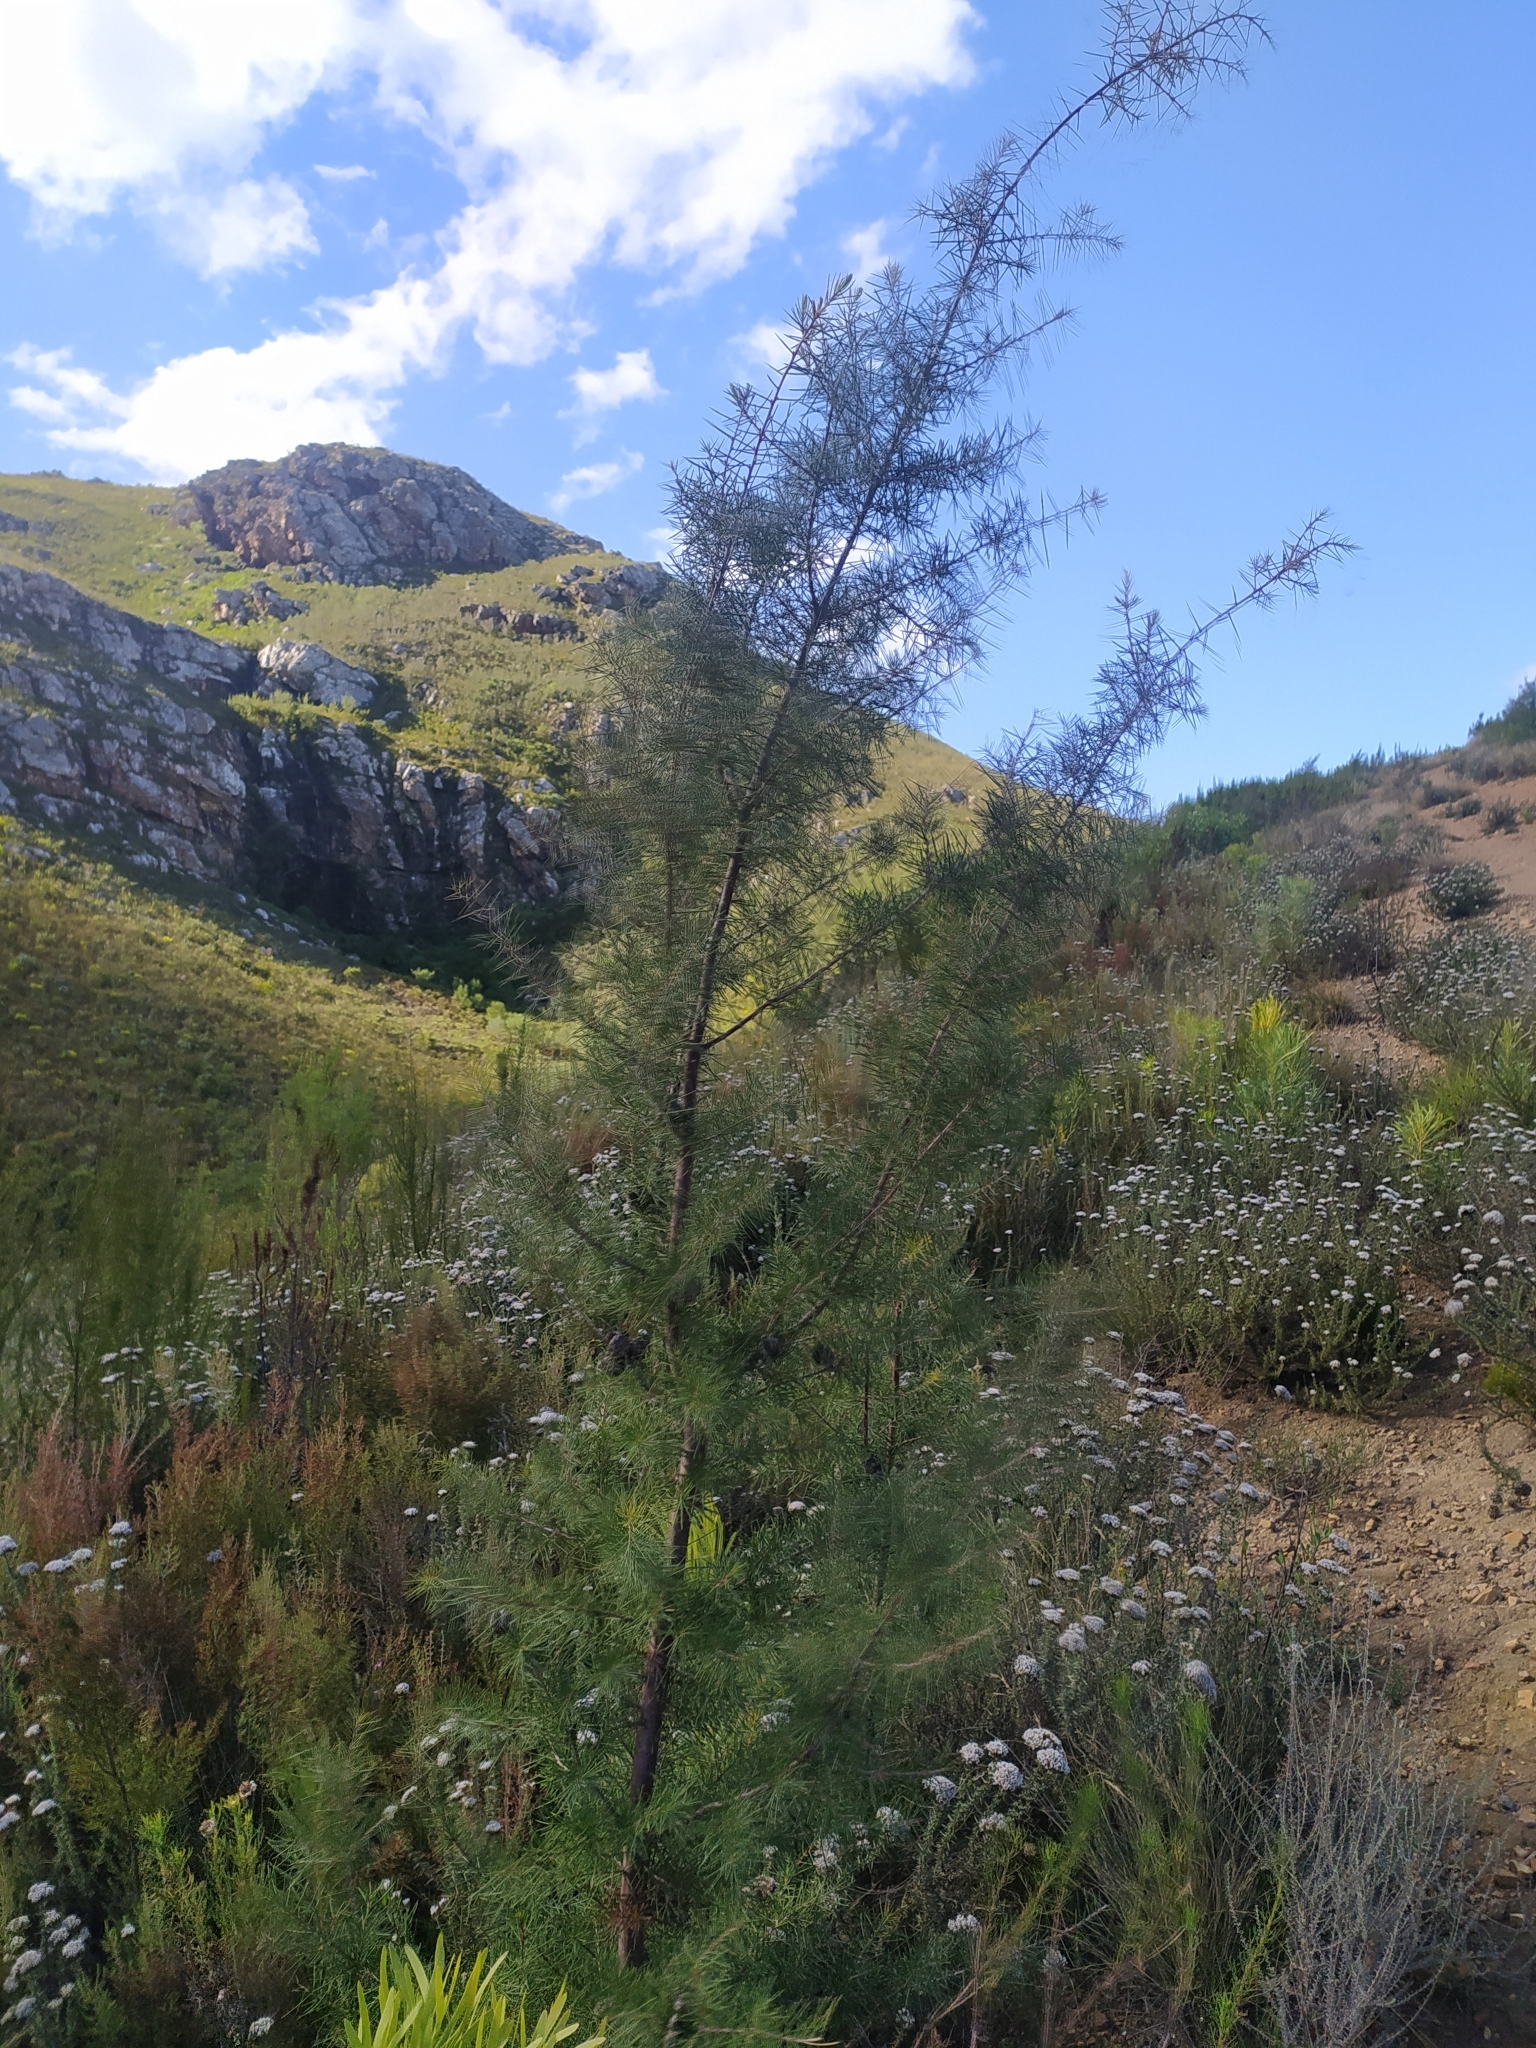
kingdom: Plantae
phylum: Tracheophyta
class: Magnoliopsida
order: Proteales
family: Proteaceae
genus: Hakea
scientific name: Hakea sericea
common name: Needle bush
